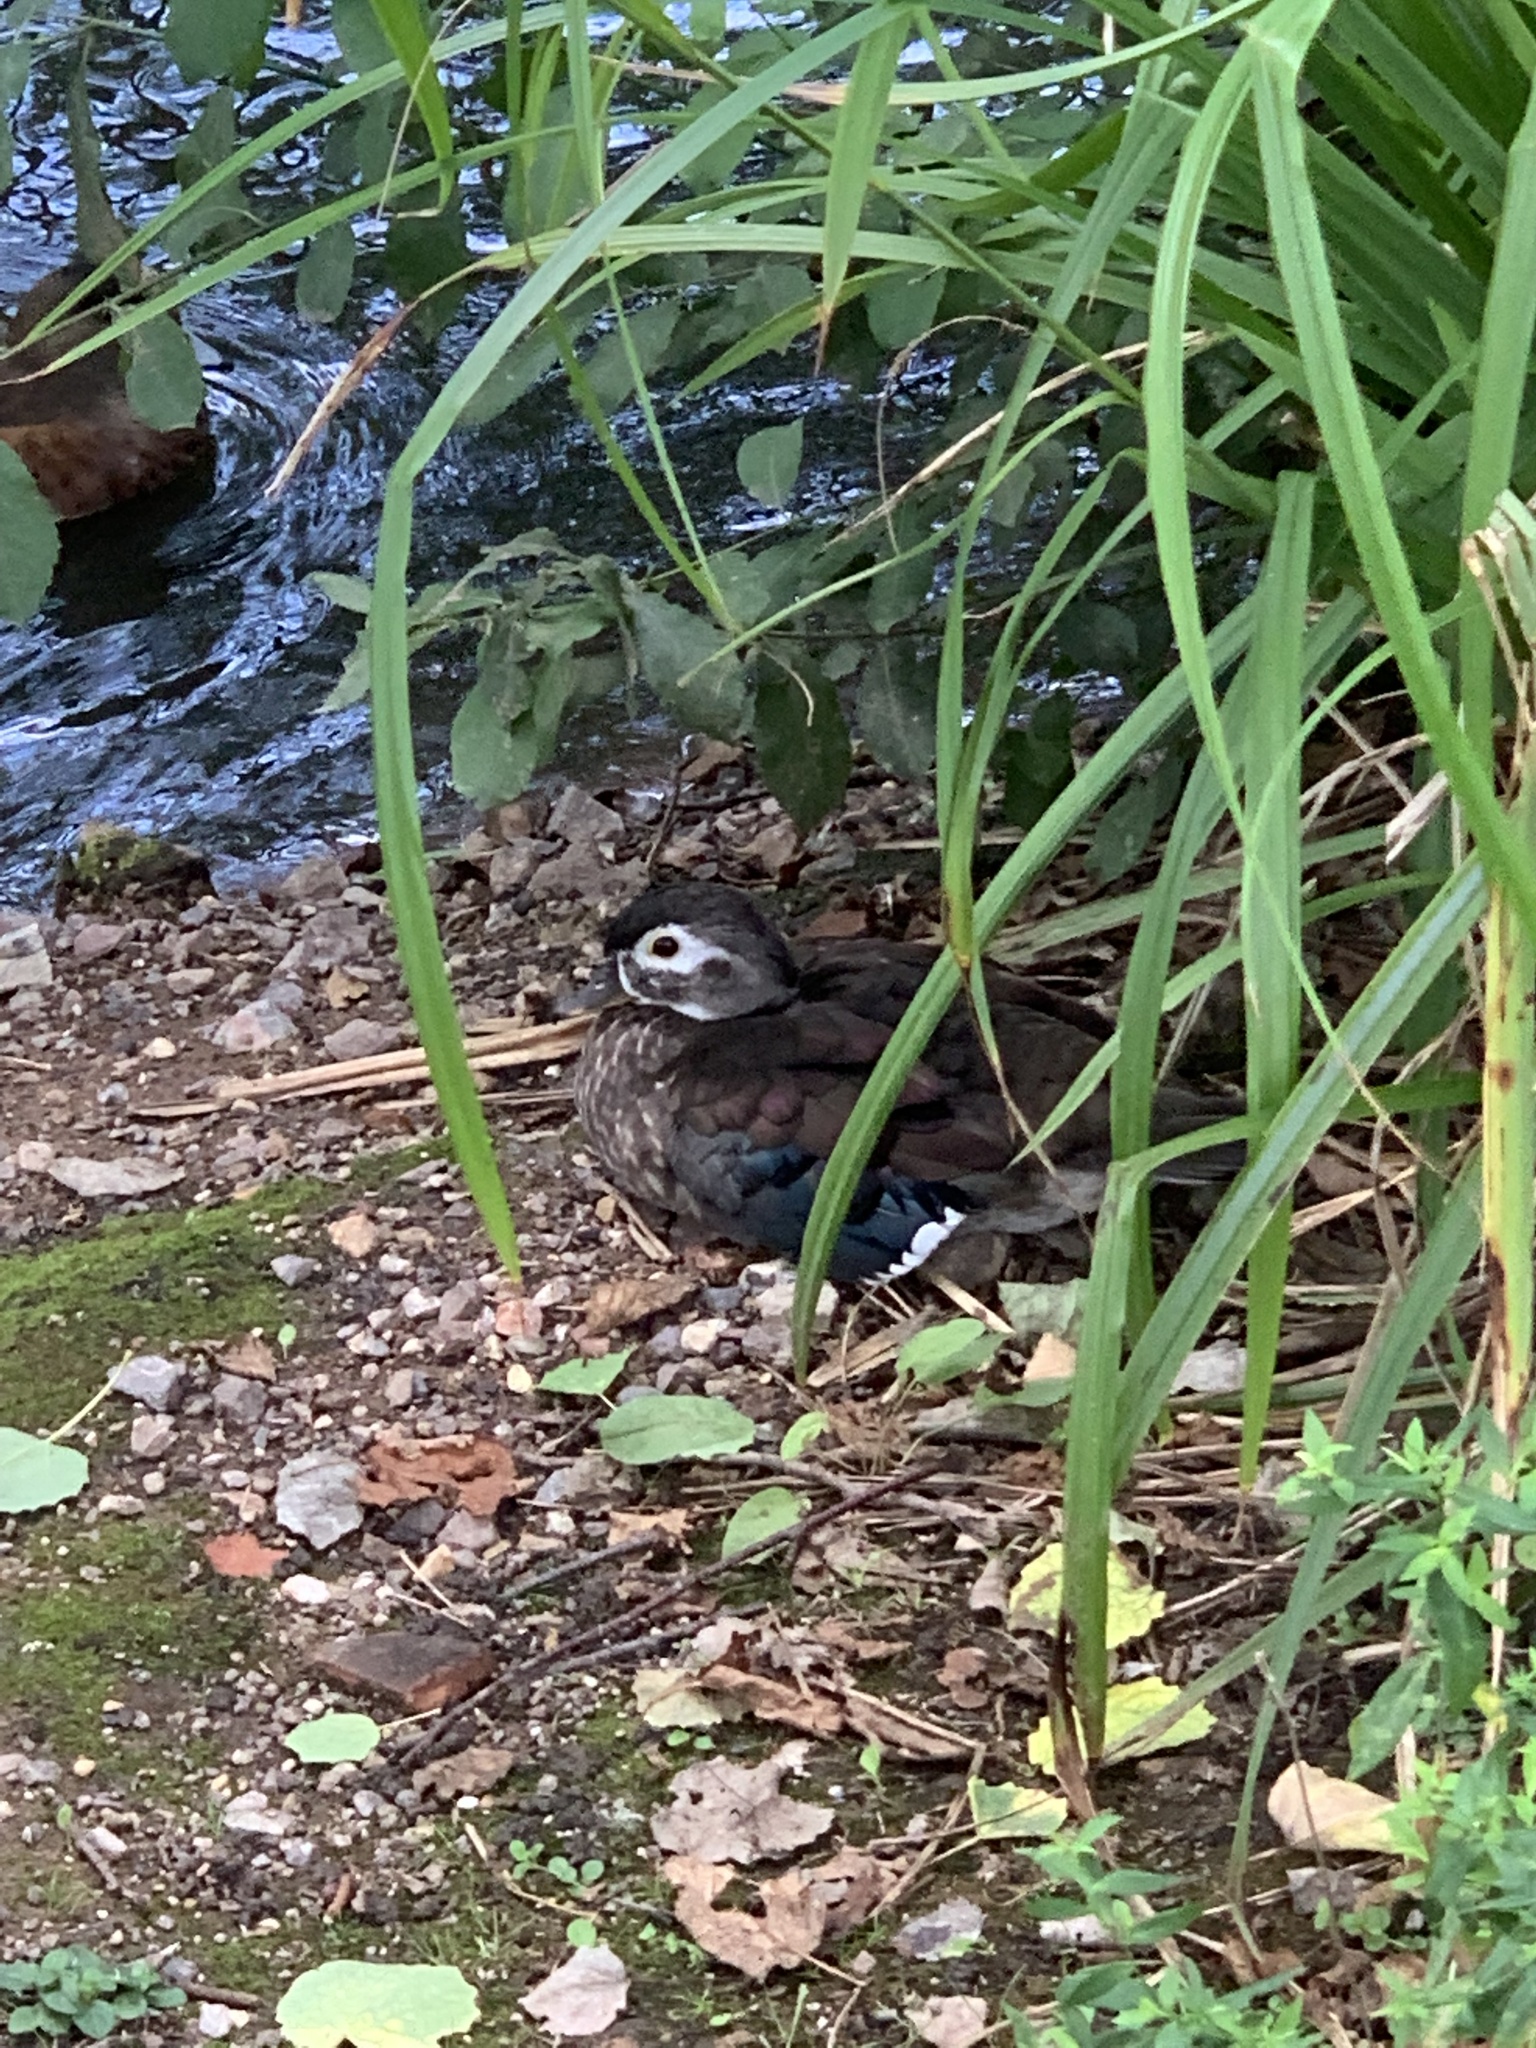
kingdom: Animalia
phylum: Chordata
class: Aves
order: Anseriformes
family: Anatidae
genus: Aix
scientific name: Aix sponsa
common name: Wood duck
